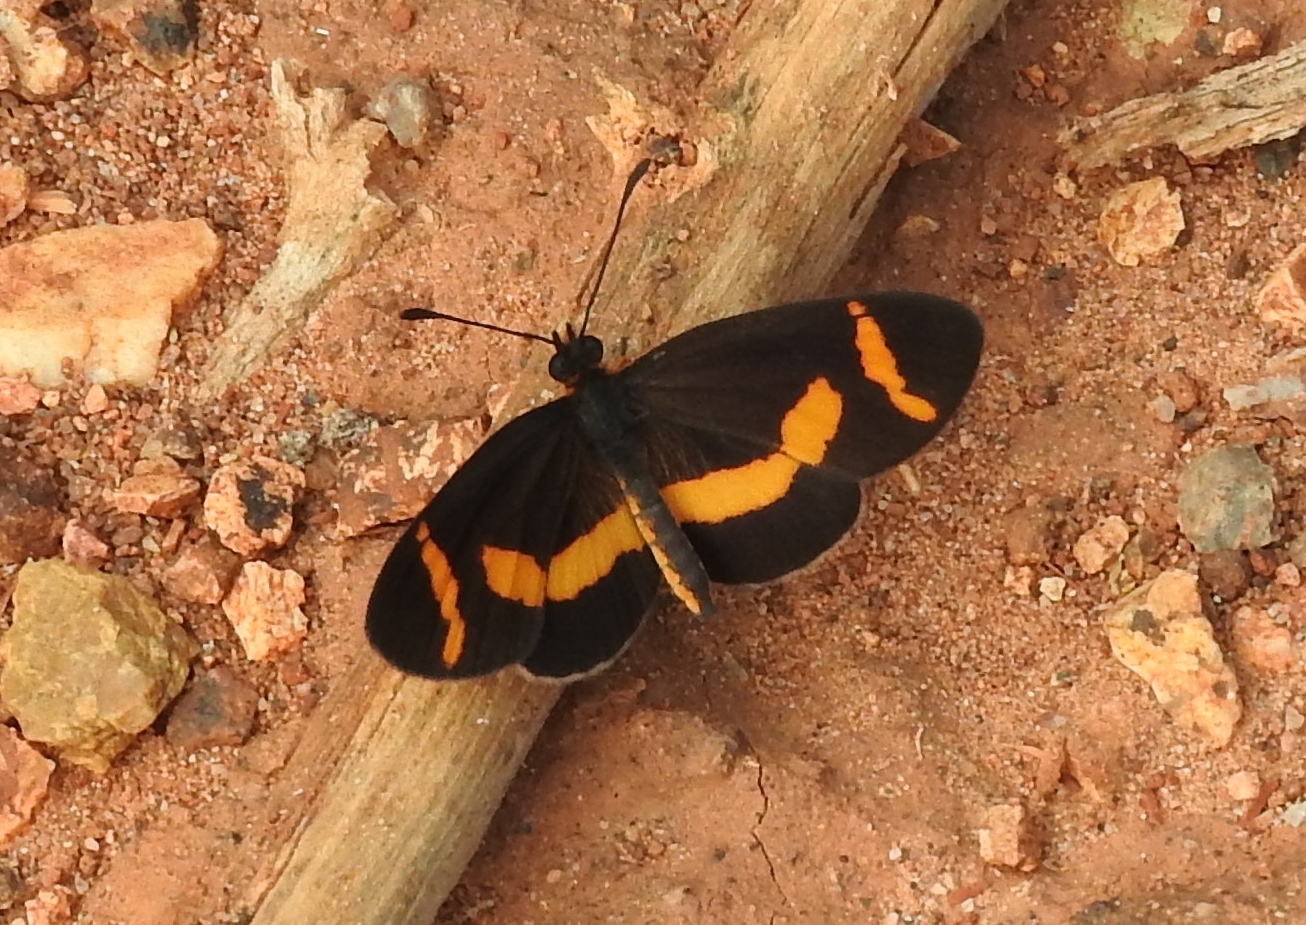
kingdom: Animalia
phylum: Arthropoda
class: Insecta
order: Lepidoptera
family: Nymphalidae
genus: Microtia
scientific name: Microtia elva
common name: Elf
